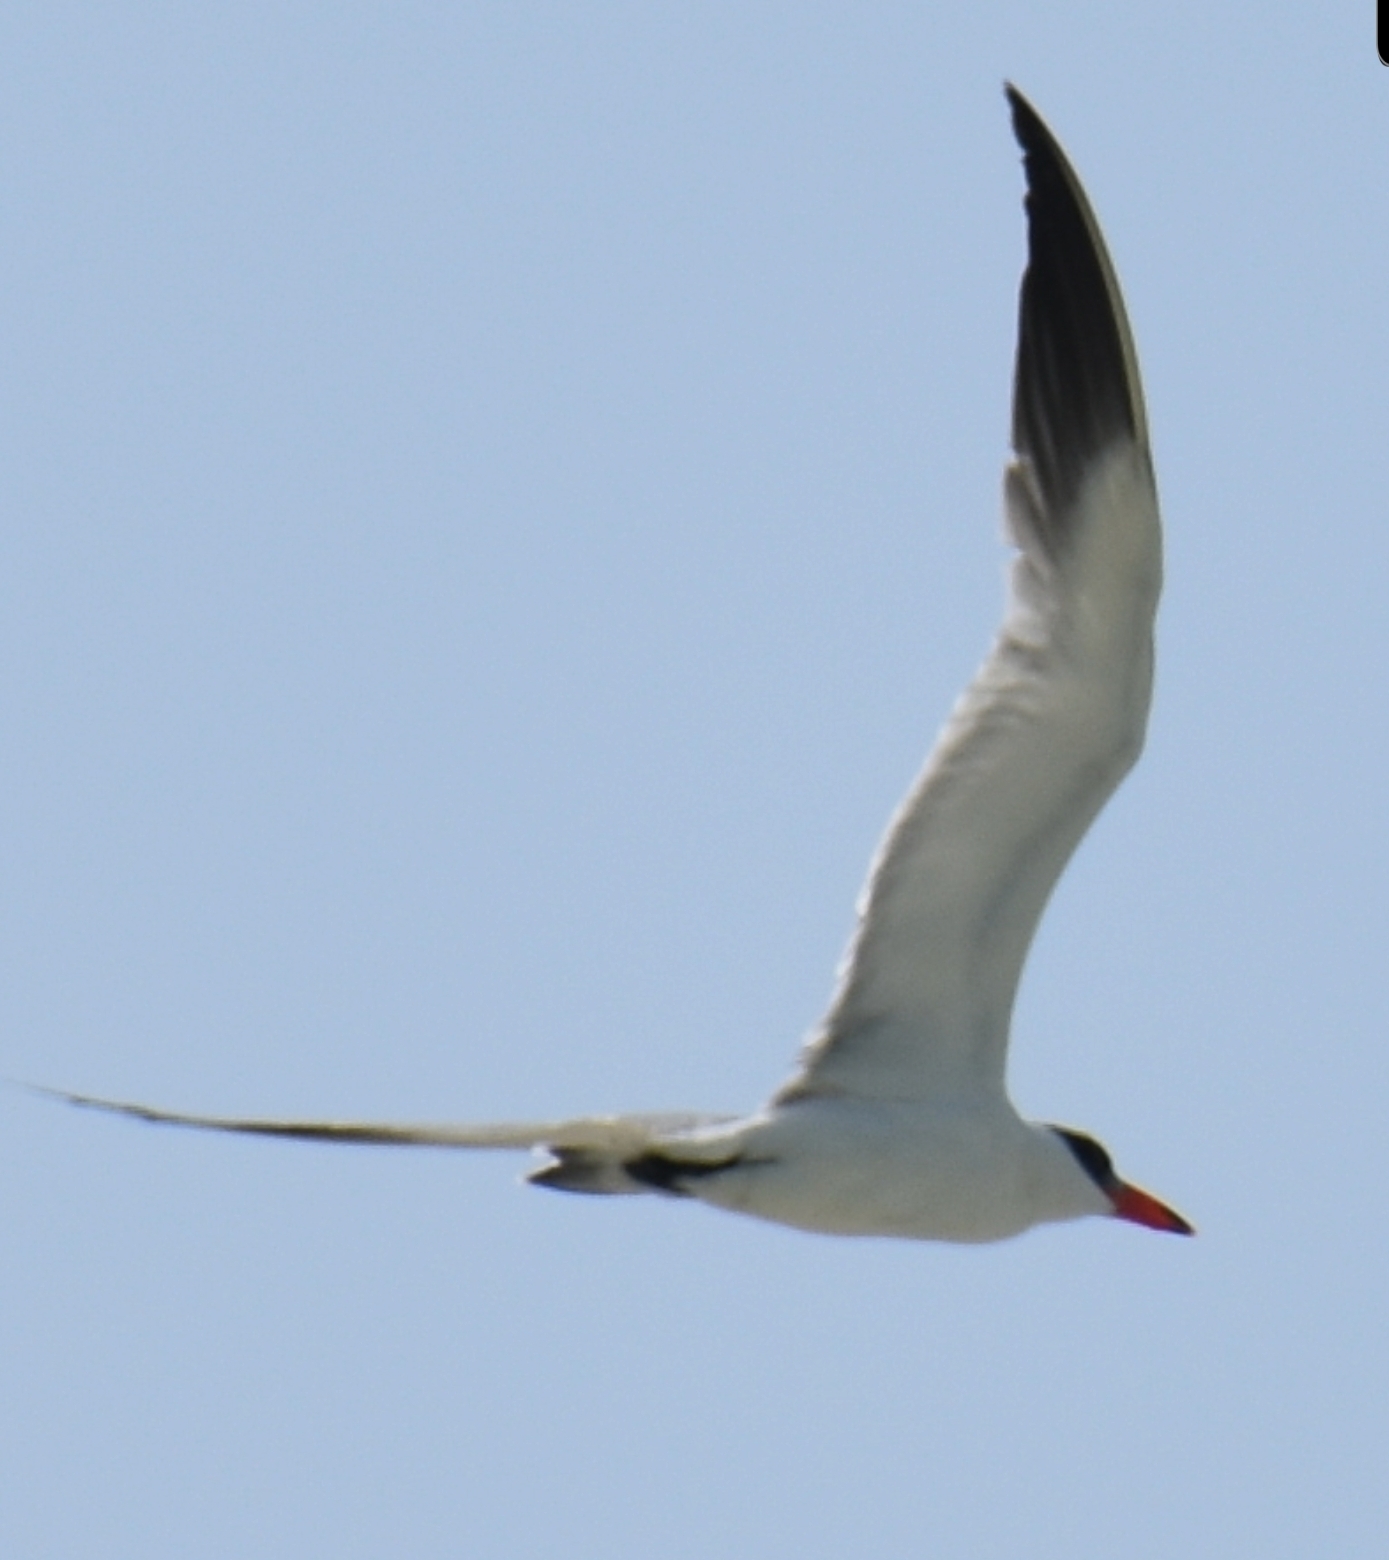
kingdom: Animalia
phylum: Chordata
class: Aves
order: Charadriiformes
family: Laridae
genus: Hydroprogne
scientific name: Hydroprogne caspia
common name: Caspian tern
